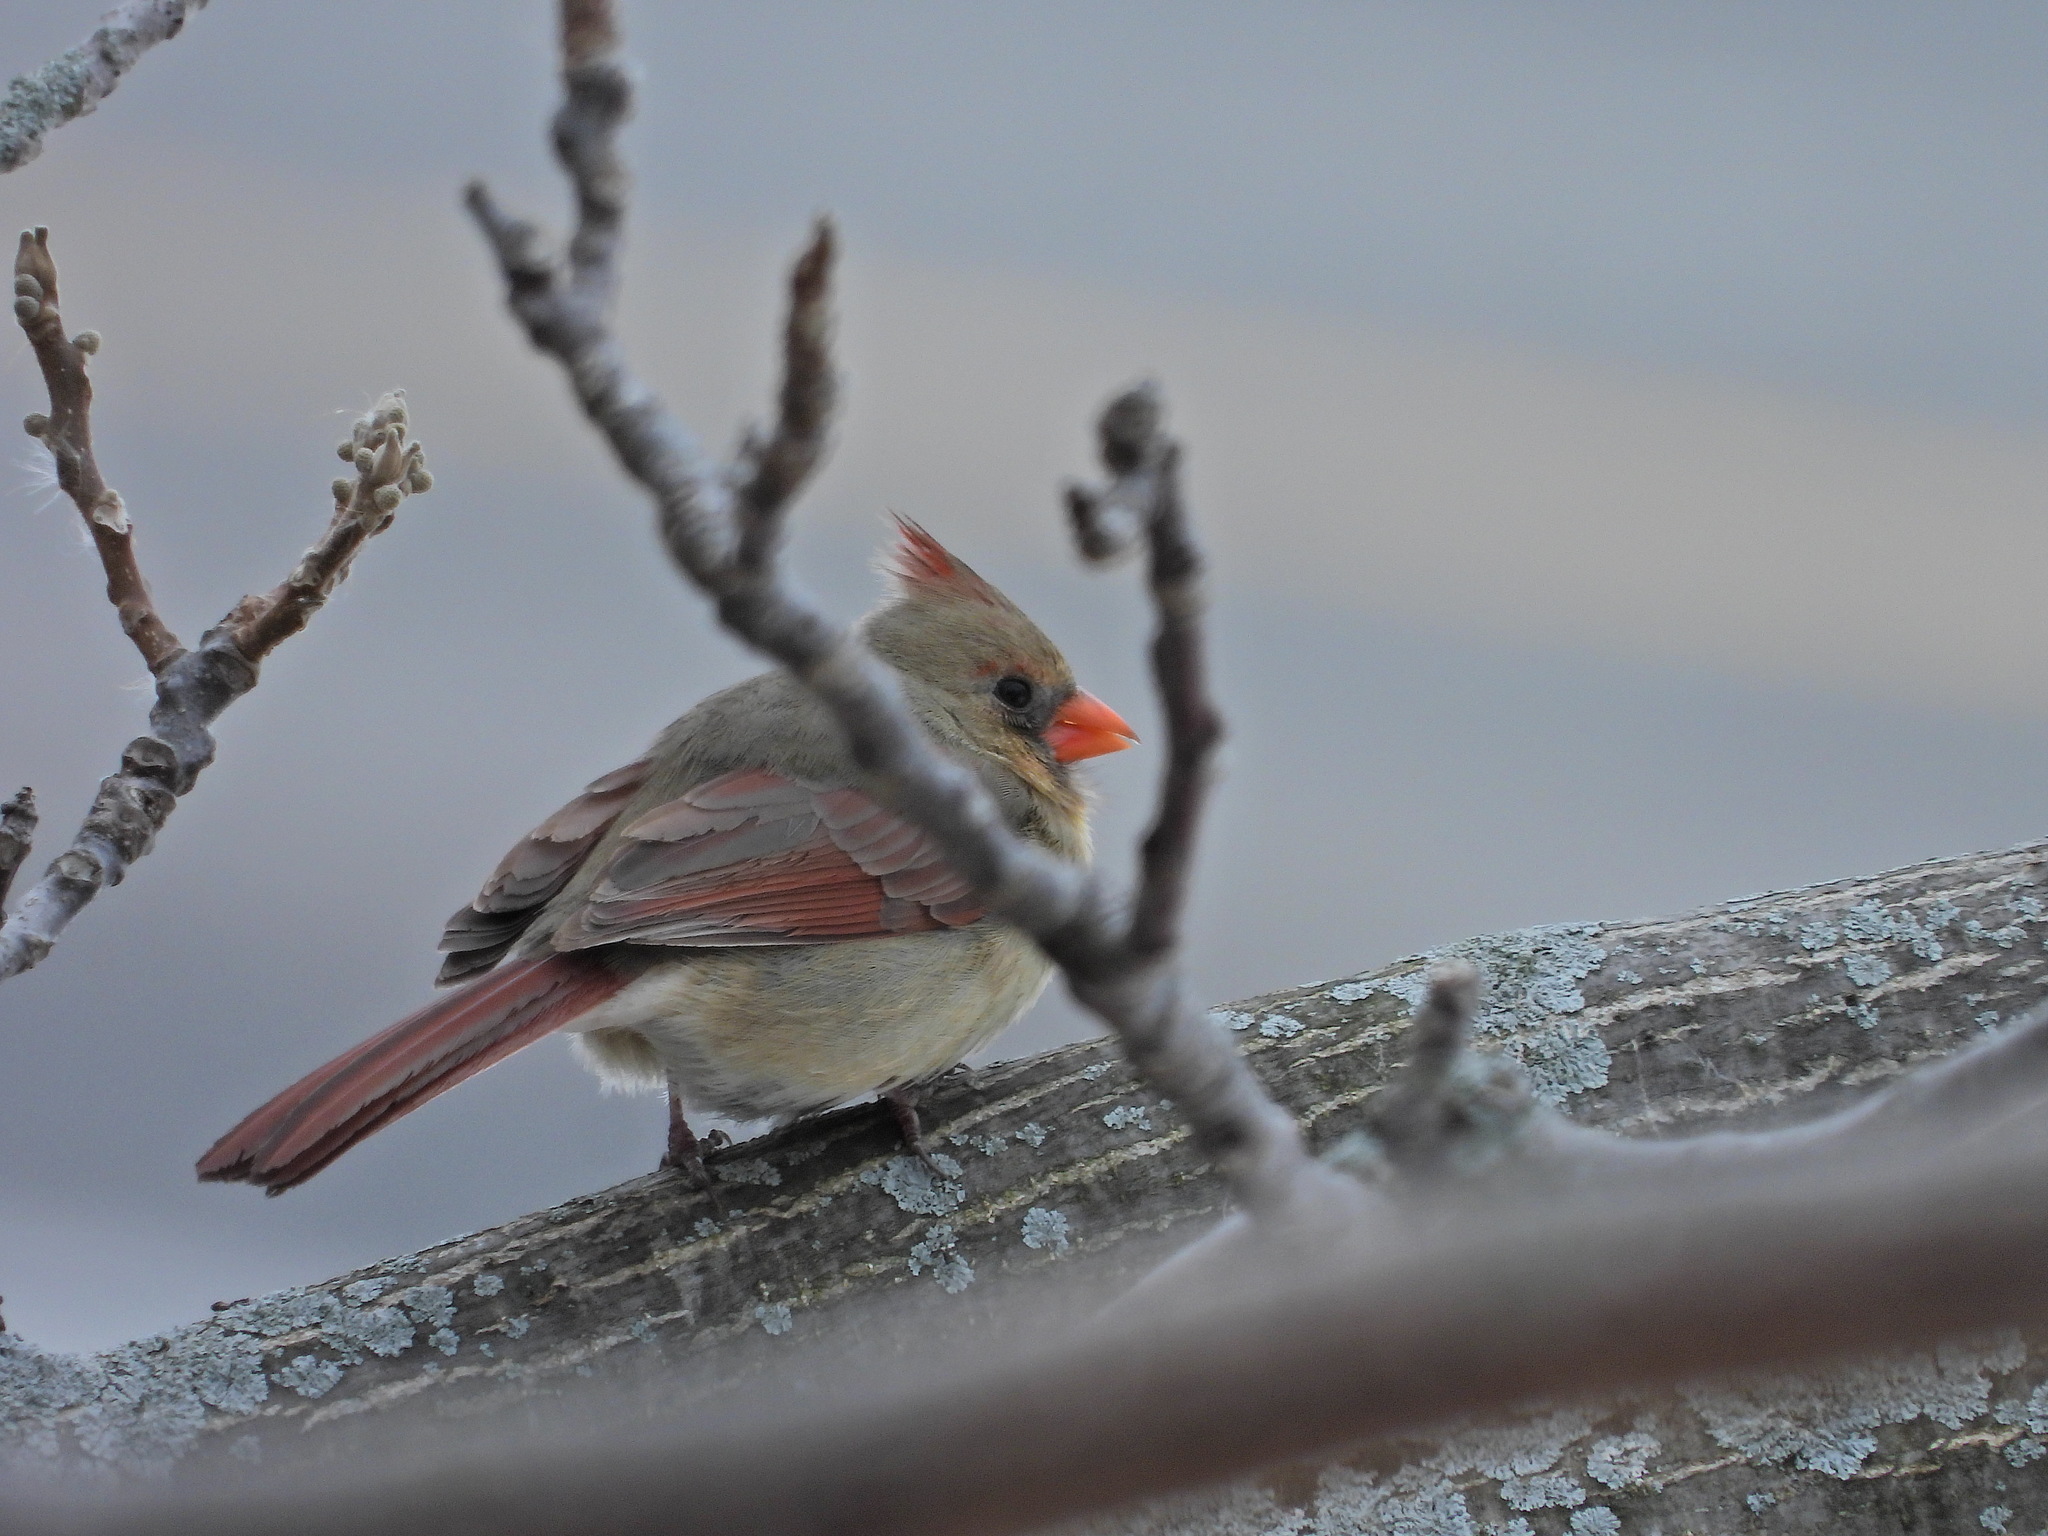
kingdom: Animalia
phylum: Chordata
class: Aves
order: Passeriformes
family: Cardinalidae
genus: Cardinalis
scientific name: Cardinalis cardinalis
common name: Northern cardinal
